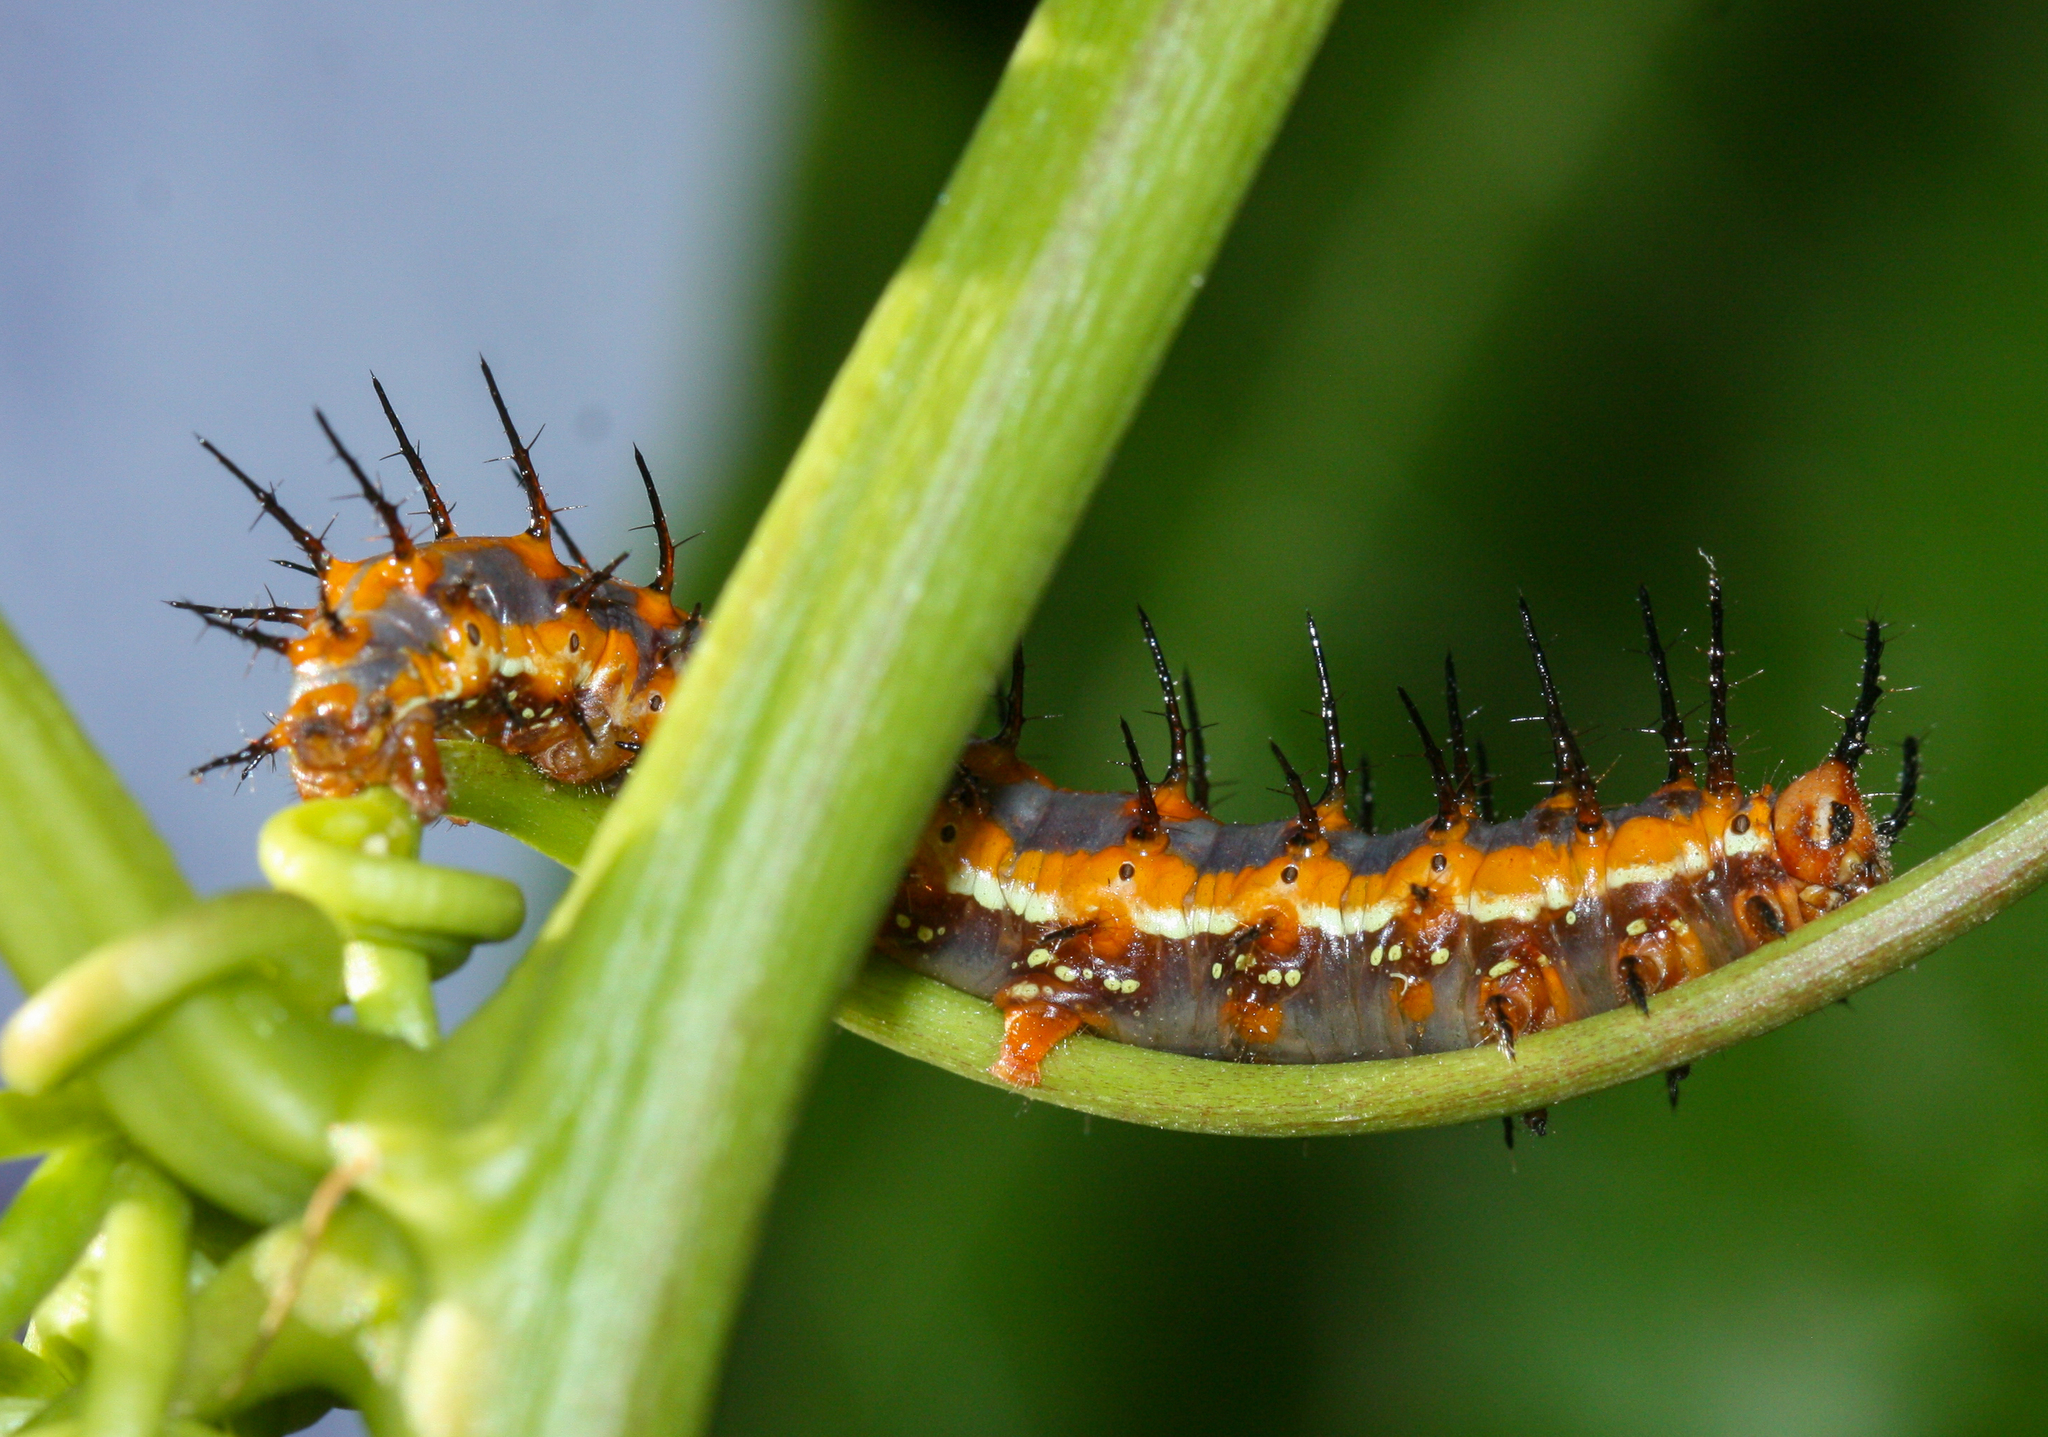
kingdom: Animalia
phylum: Arthropoda
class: Insecta
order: Lepidoptera
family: Nymphalidae
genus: Dione
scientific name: Dione vanillae
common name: Gulf fritillary
